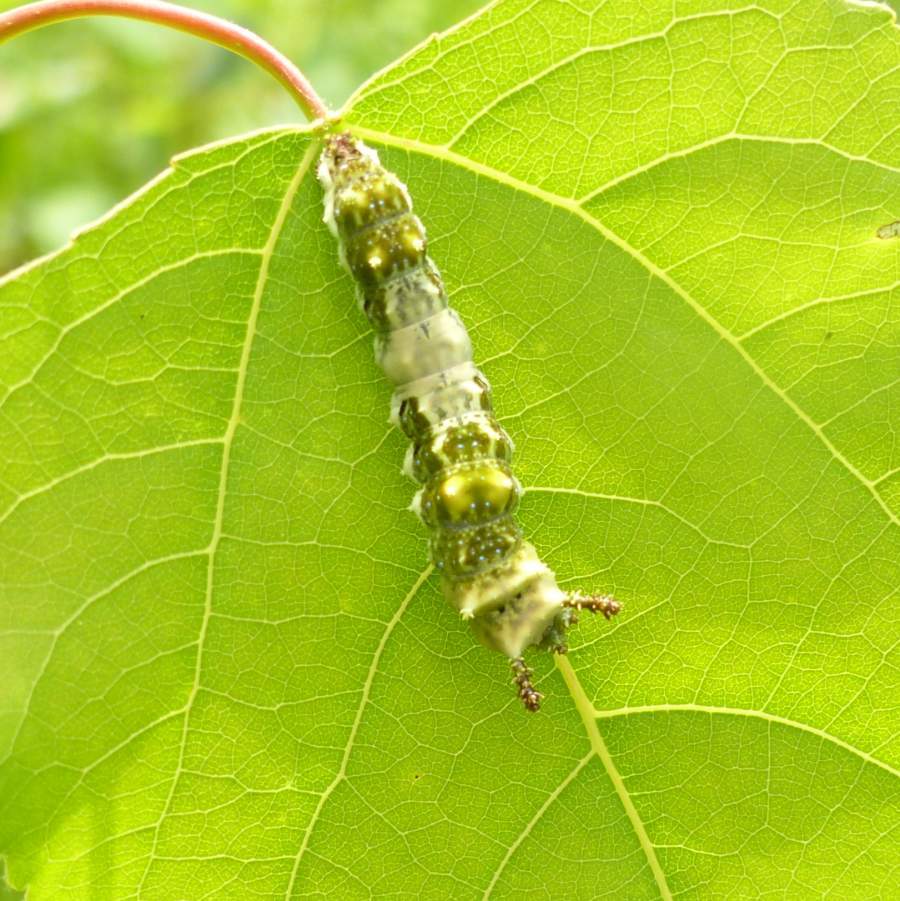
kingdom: Animalia
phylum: Arthropoda
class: Insecta
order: Lepidoptera
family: Nymphalidae
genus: Limenitis
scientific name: Limenitis
